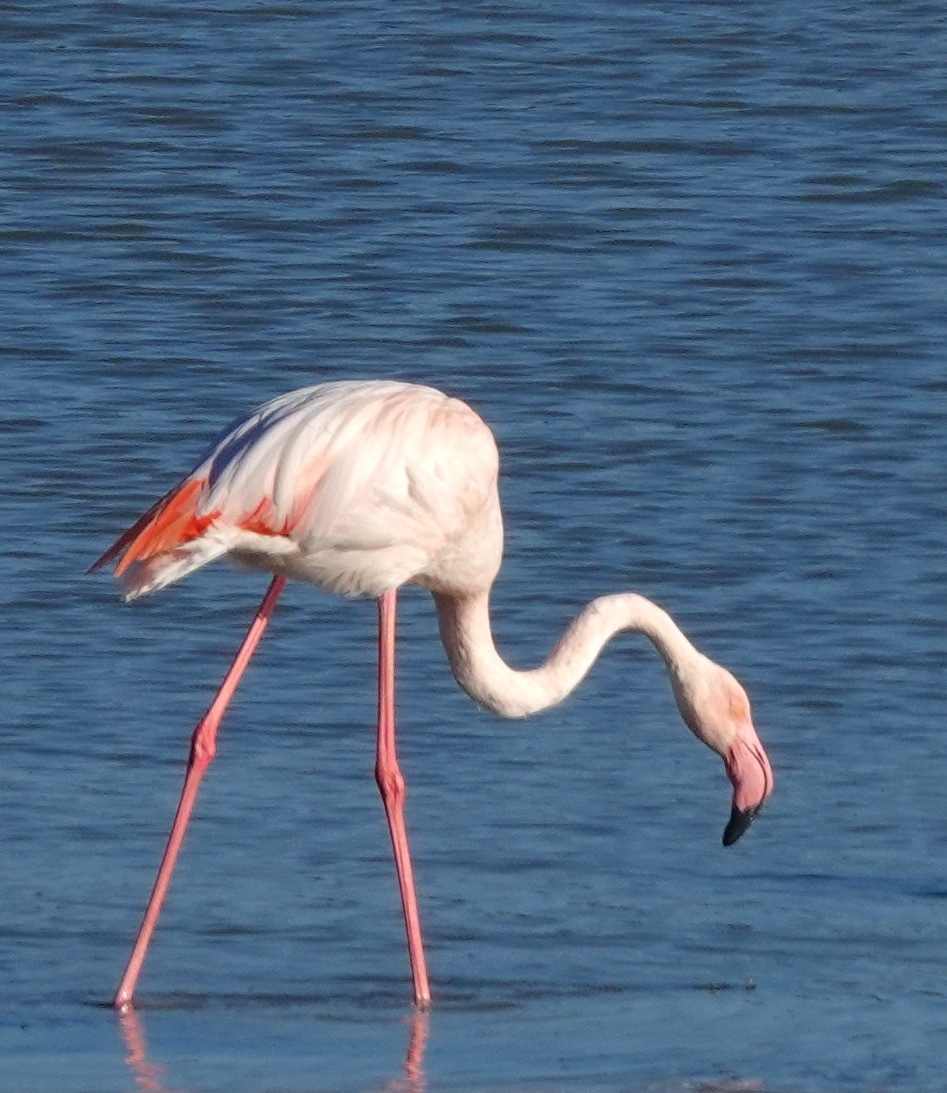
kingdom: Animalia
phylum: Chordata
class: Aves
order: Phoenicopteriformes
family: Phoenicopteridae
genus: Phoenicopterus
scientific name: Phoenicopterus roseus
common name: Greater flamingo
